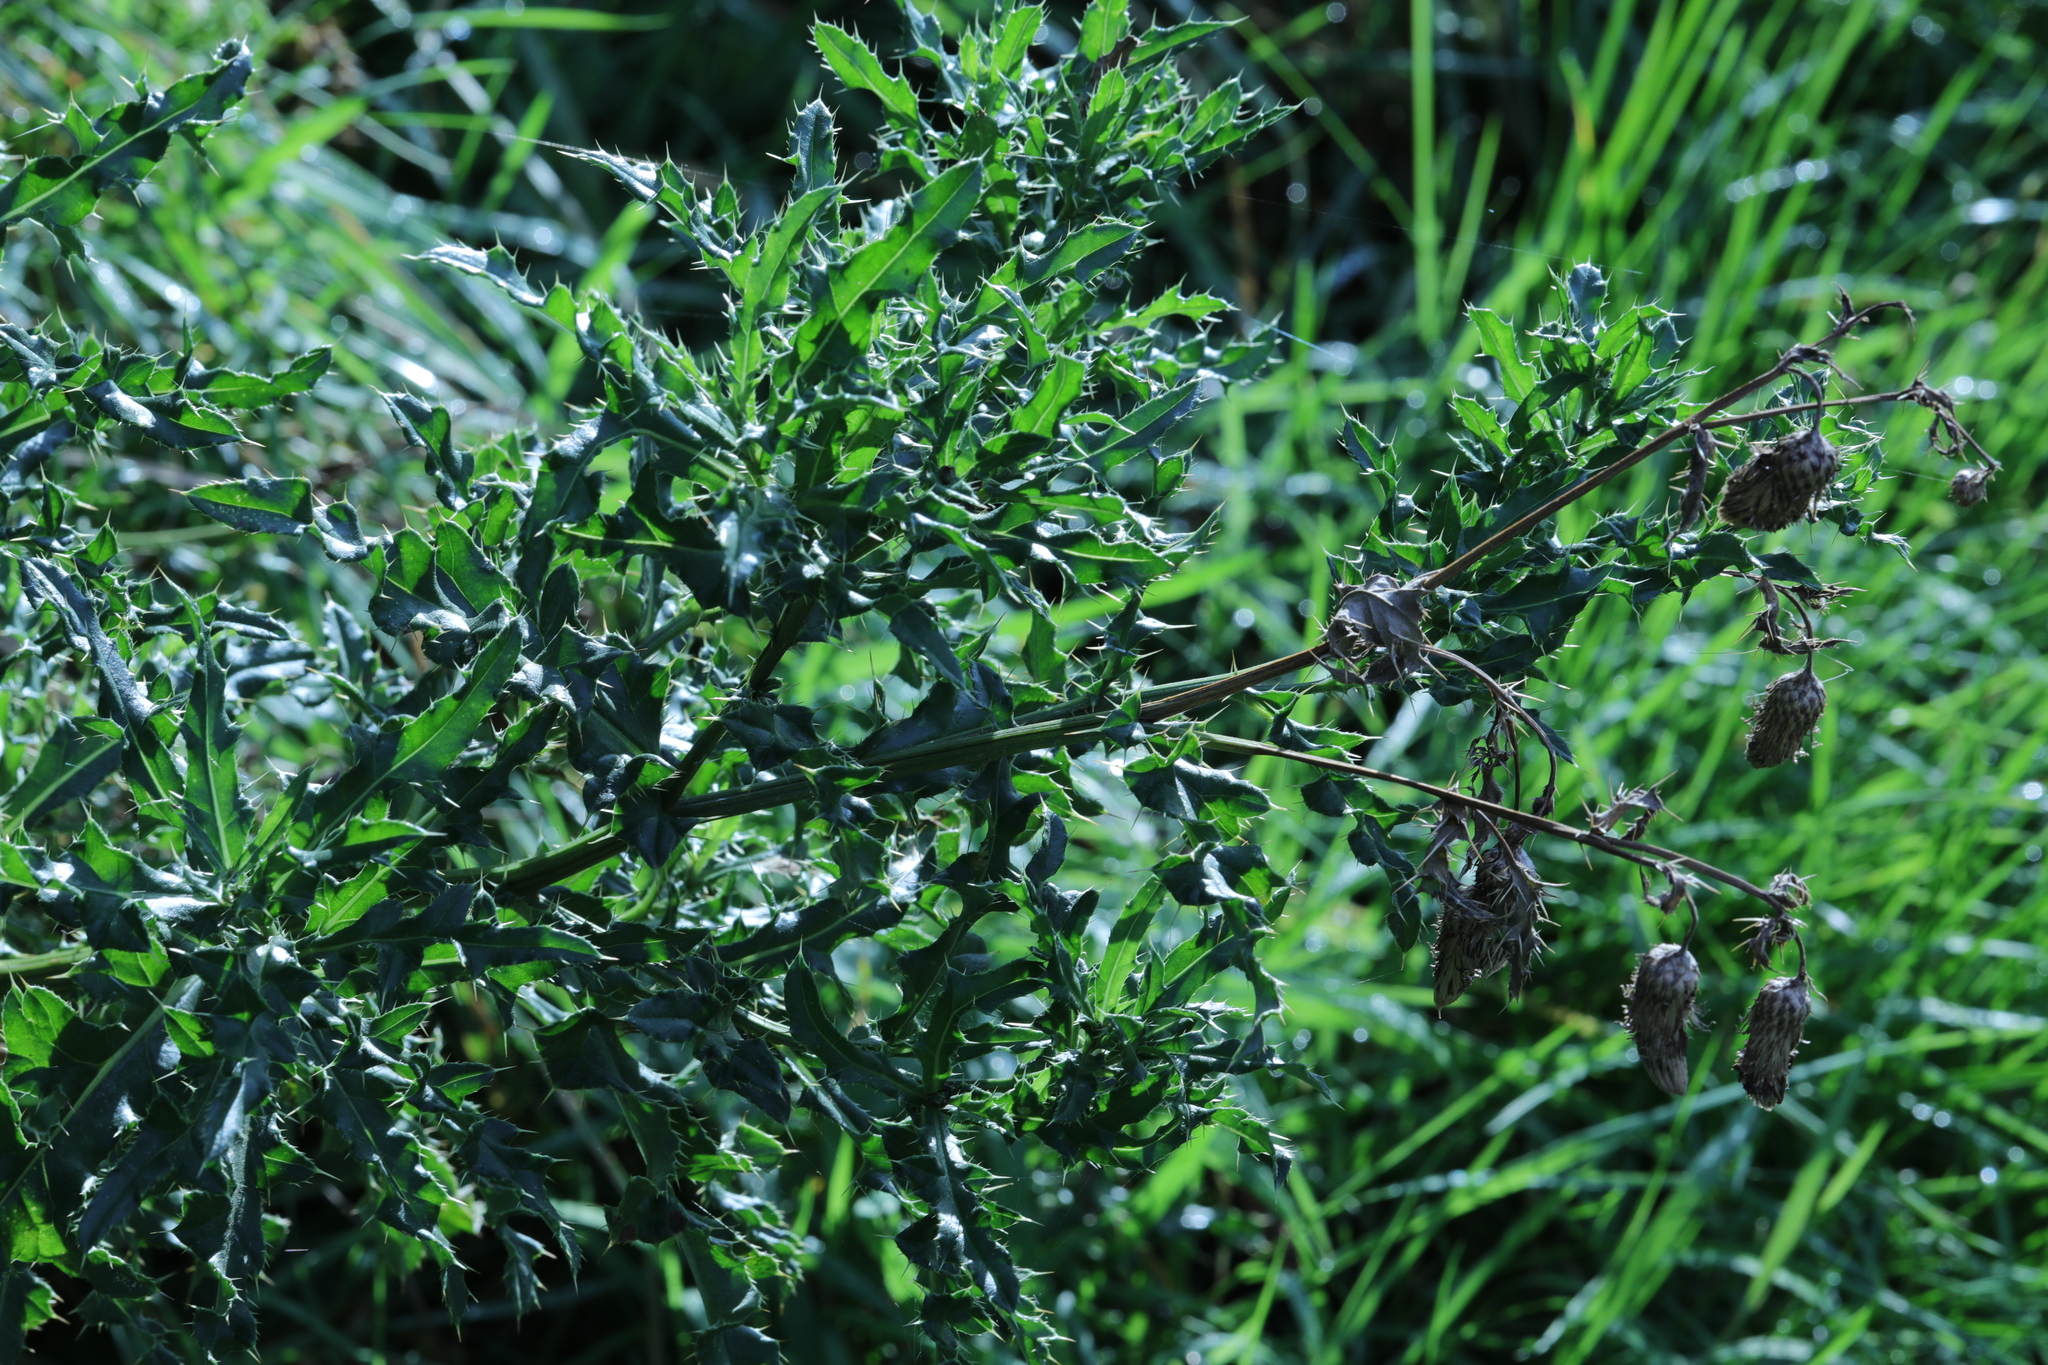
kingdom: Plantae
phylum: Tracheophyta
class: Magnoliopsida
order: Asterales
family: Asteraceae
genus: Cirsium
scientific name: Cirsium arvense
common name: Creeping thistle
